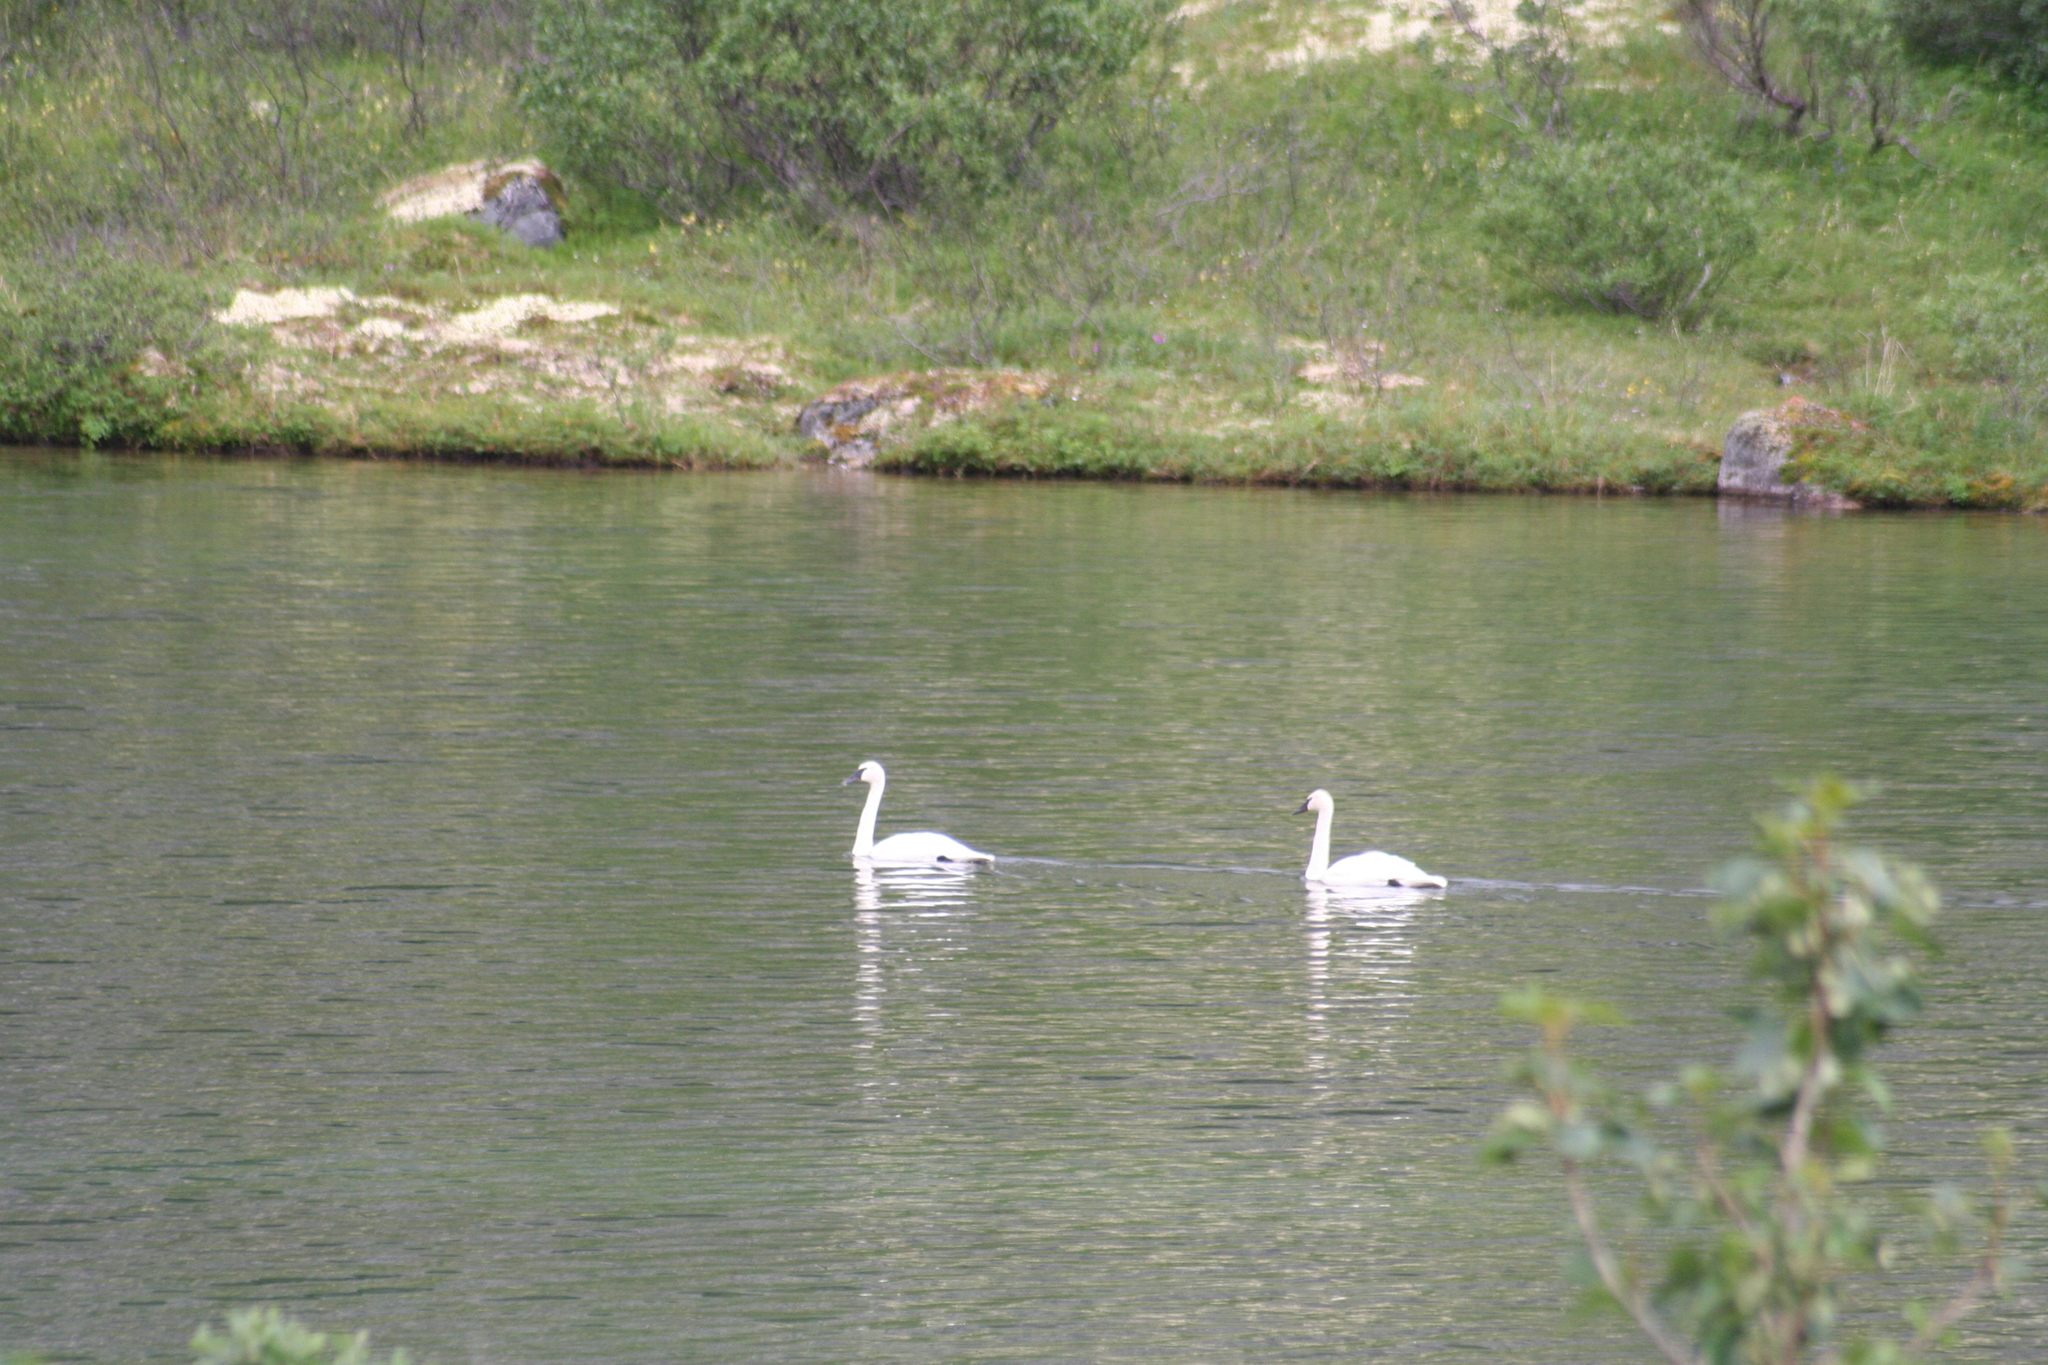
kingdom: Animalia
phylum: Chordata
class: Aves
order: Anseriformes
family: Anatidae
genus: Cygnus
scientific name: Cygnus buccinator
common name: Trumpeter swan
